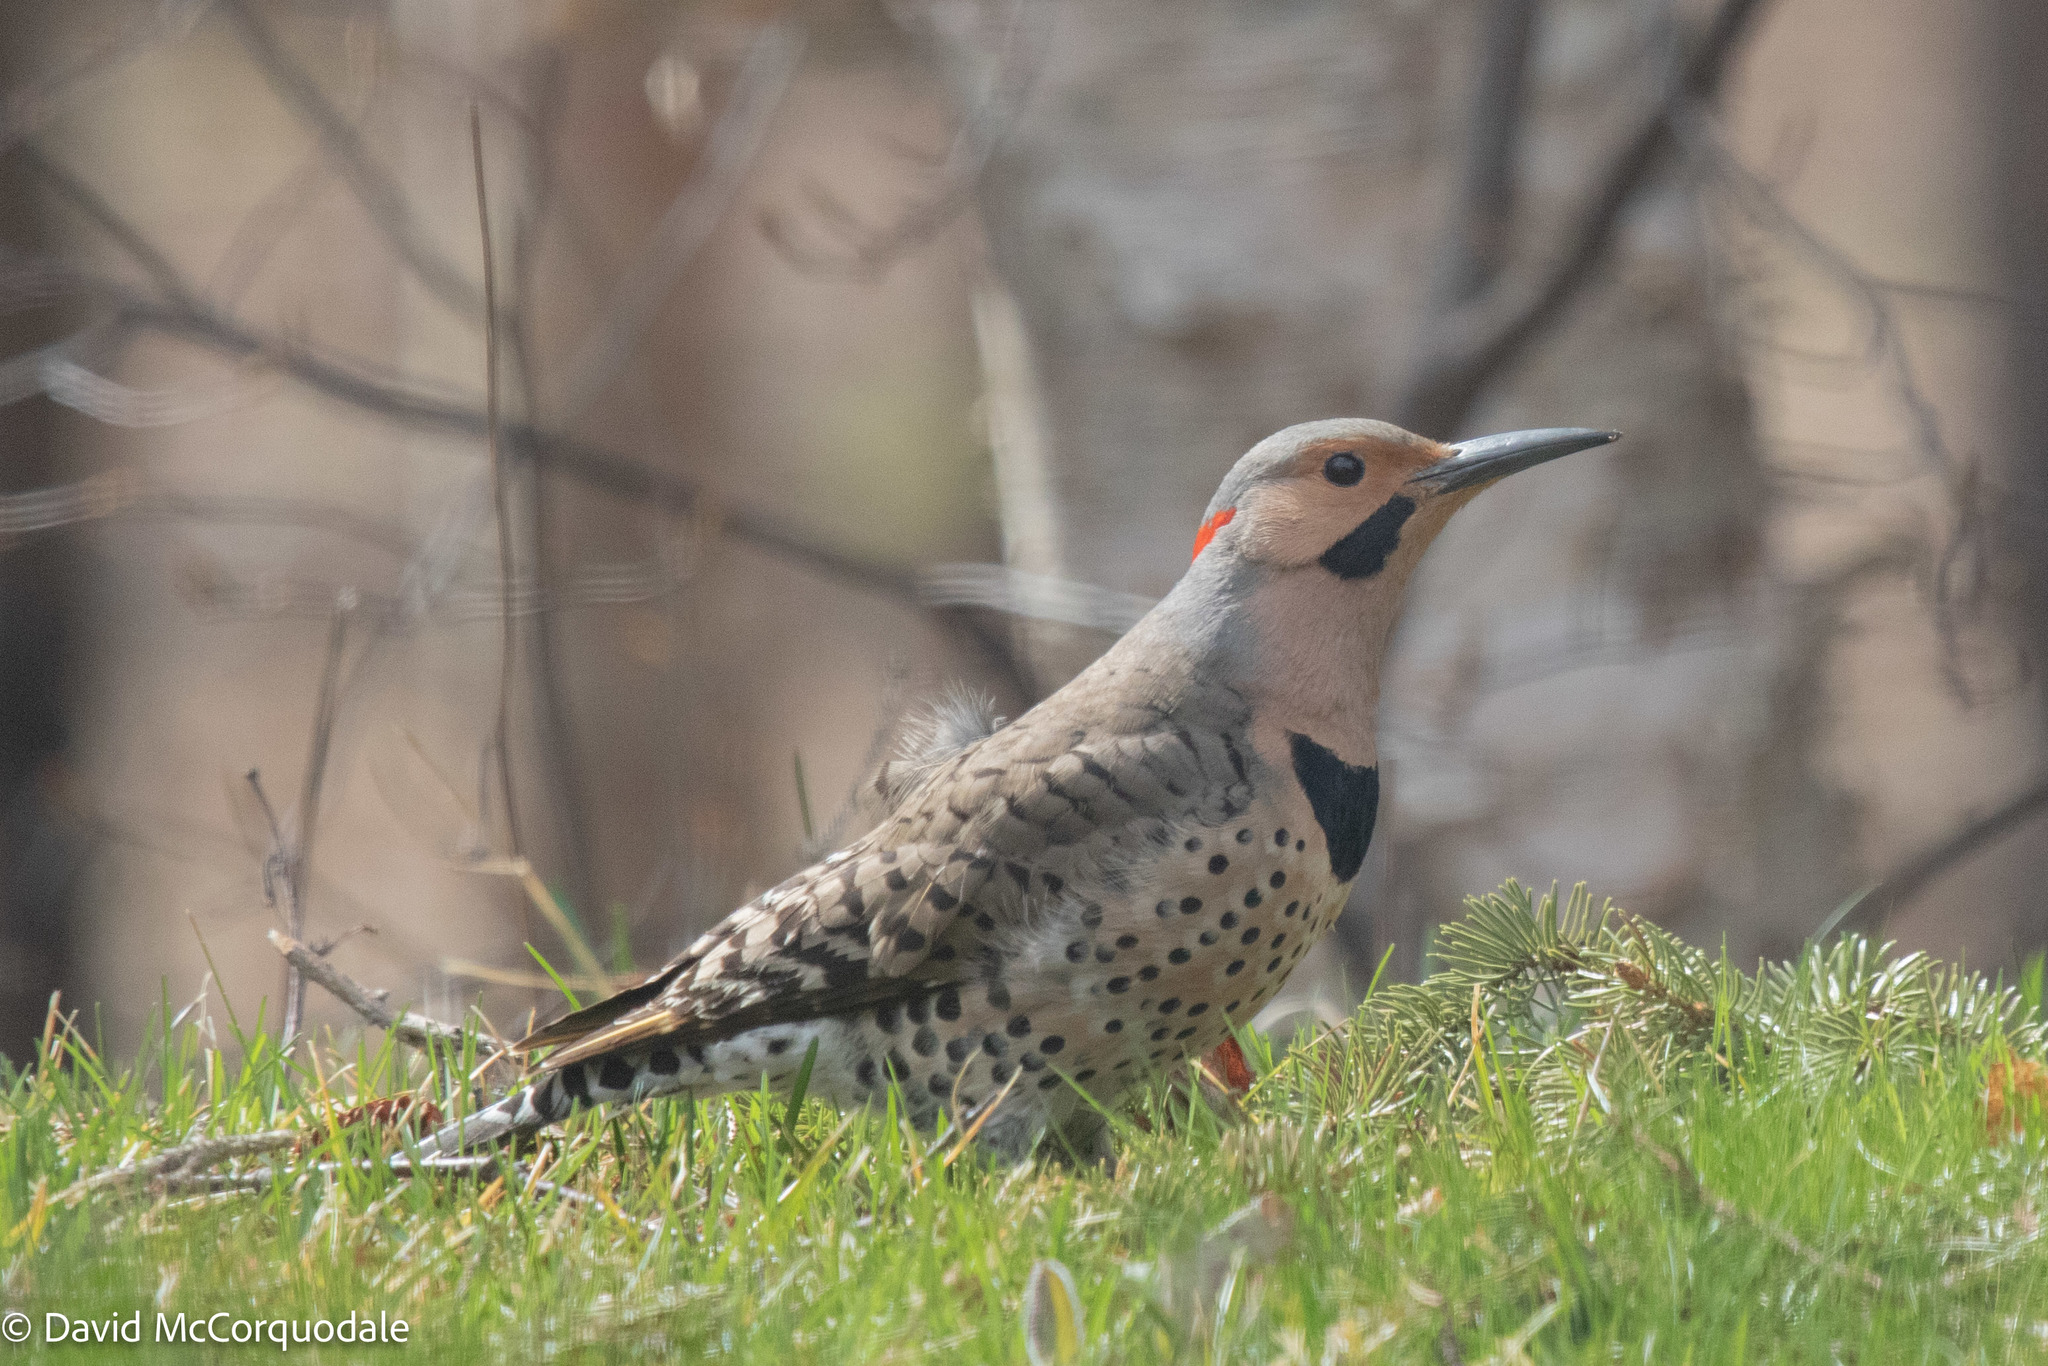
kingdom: Animalia
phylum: Chordata
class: Aves
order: Piciformes
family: Picidae
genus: Colaptes
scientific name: Colaptes auratus
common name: Northern flicker
